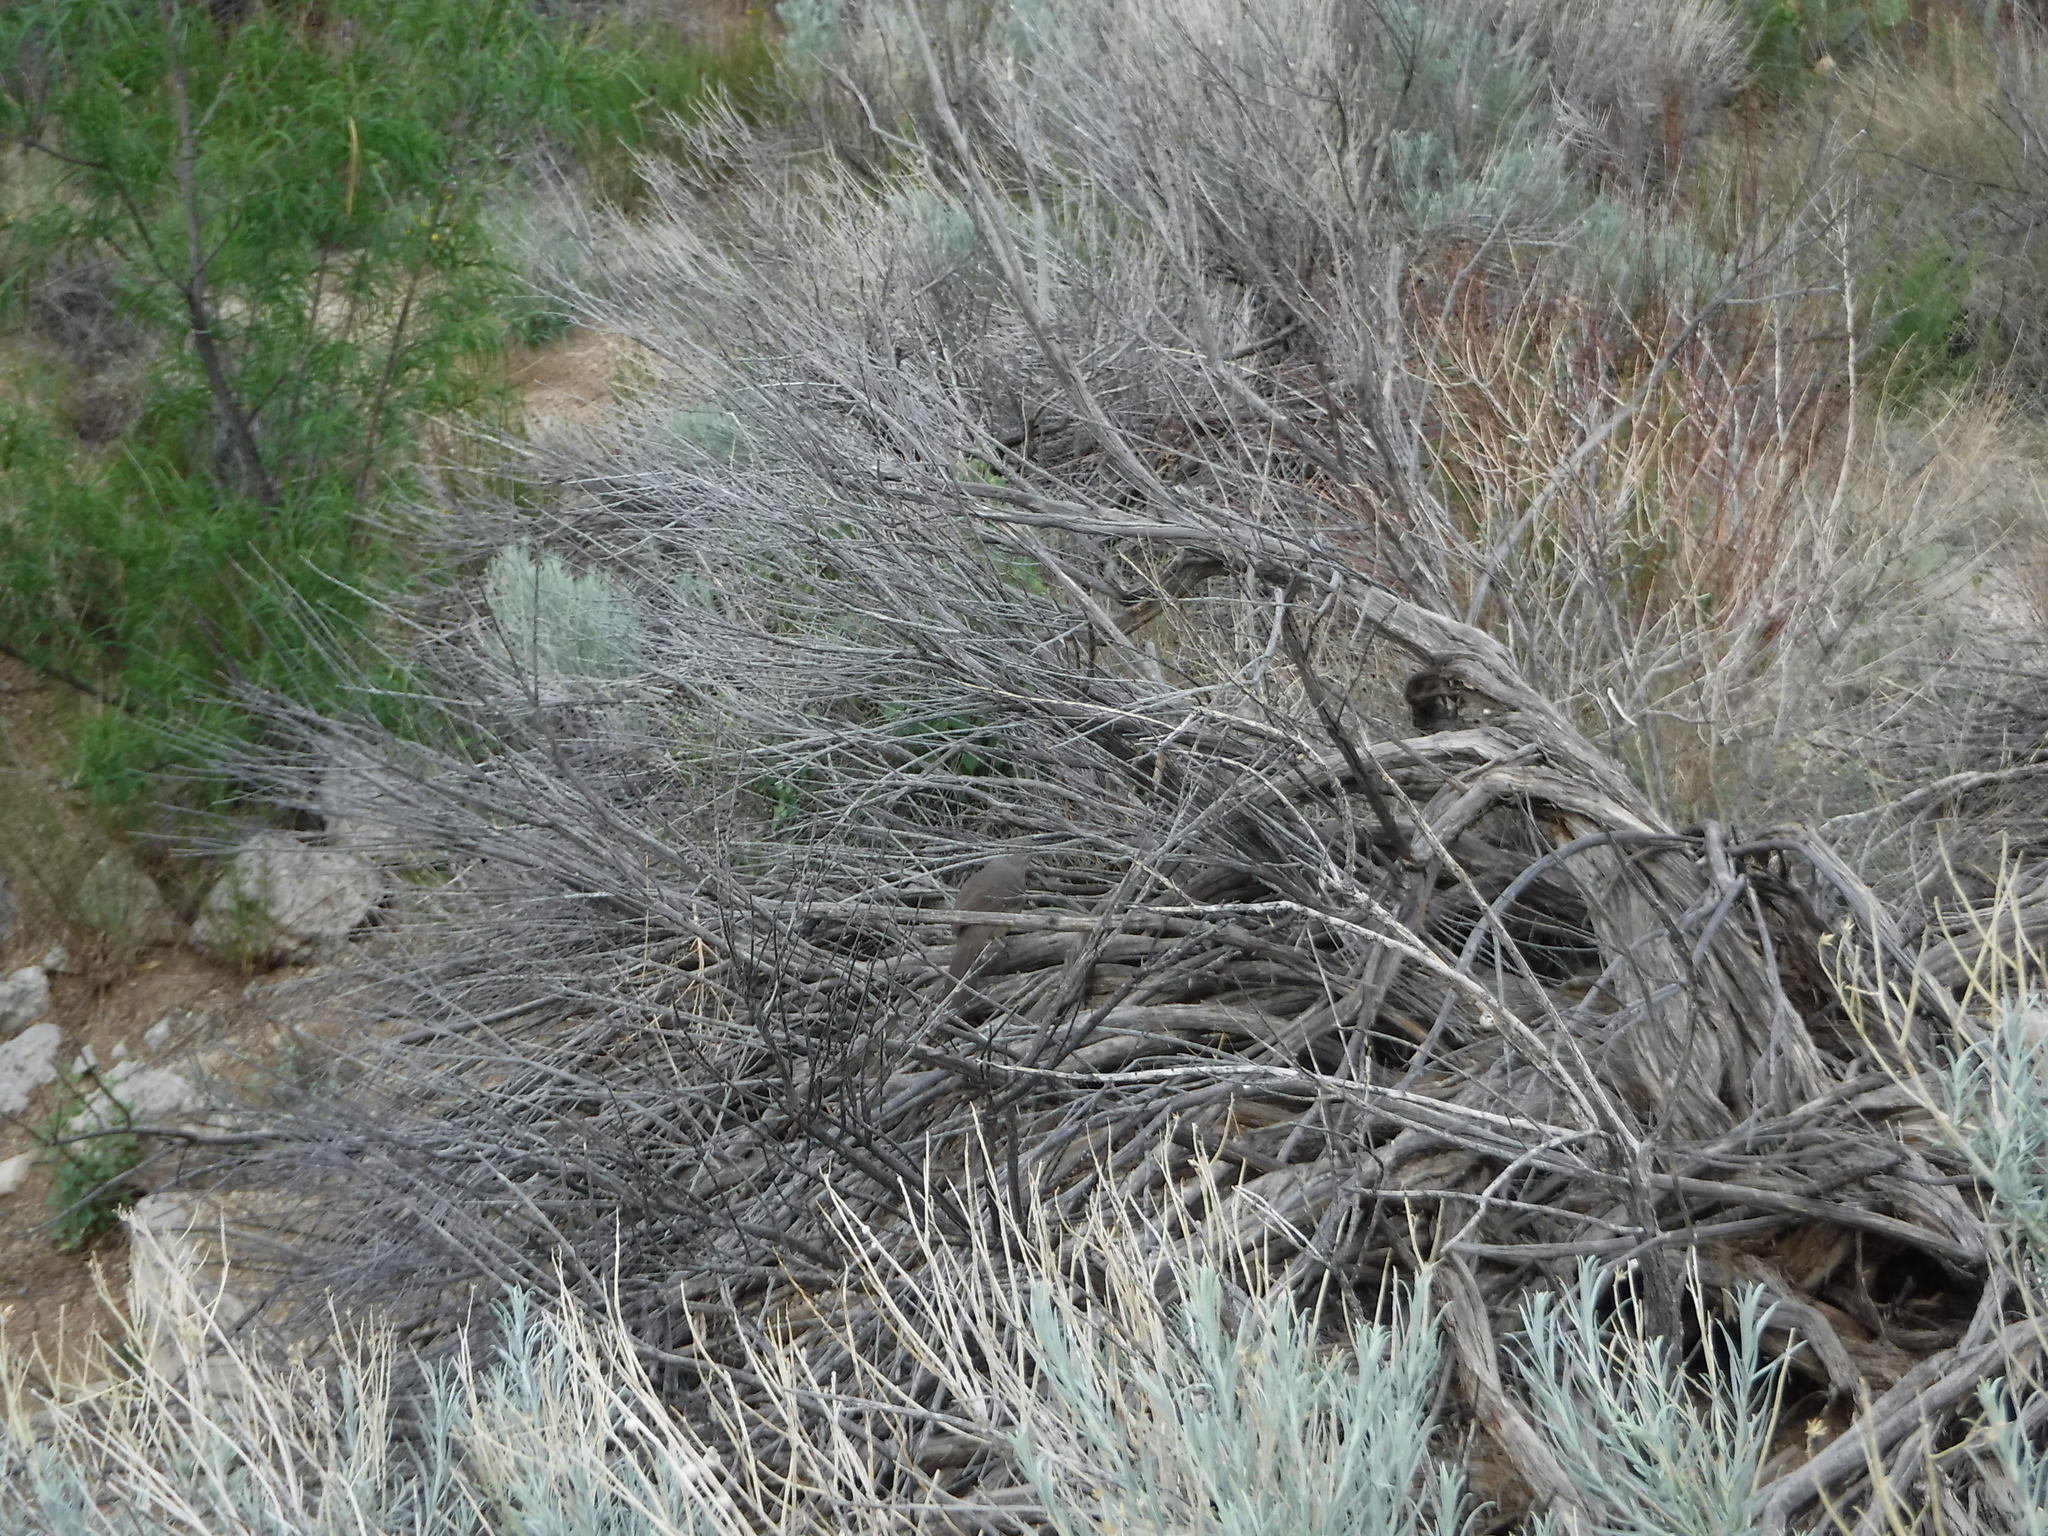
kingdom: Animalia
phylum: Chordata
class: Aves
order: Passeriformes
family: Mimidae
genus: Toxostoma
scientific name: Toxostoma curvirostre
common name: Curve-billed thrasher
